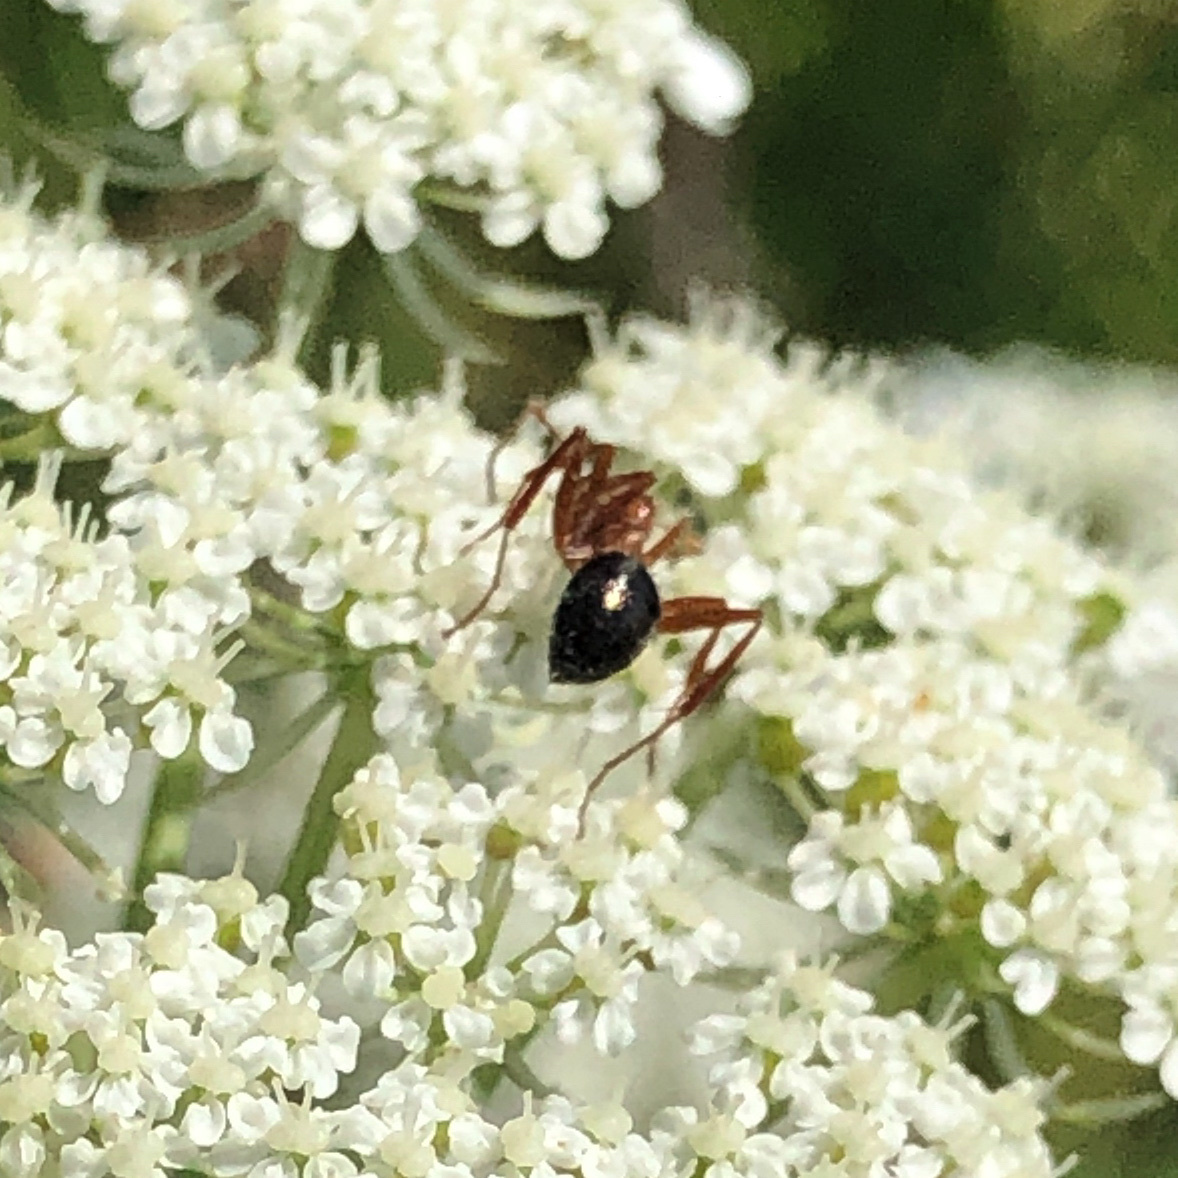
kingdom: Animalia
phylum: Arthropoda
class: Insecta
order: Hymenoptera
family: Formicidae
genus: Formica
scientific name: Formica
